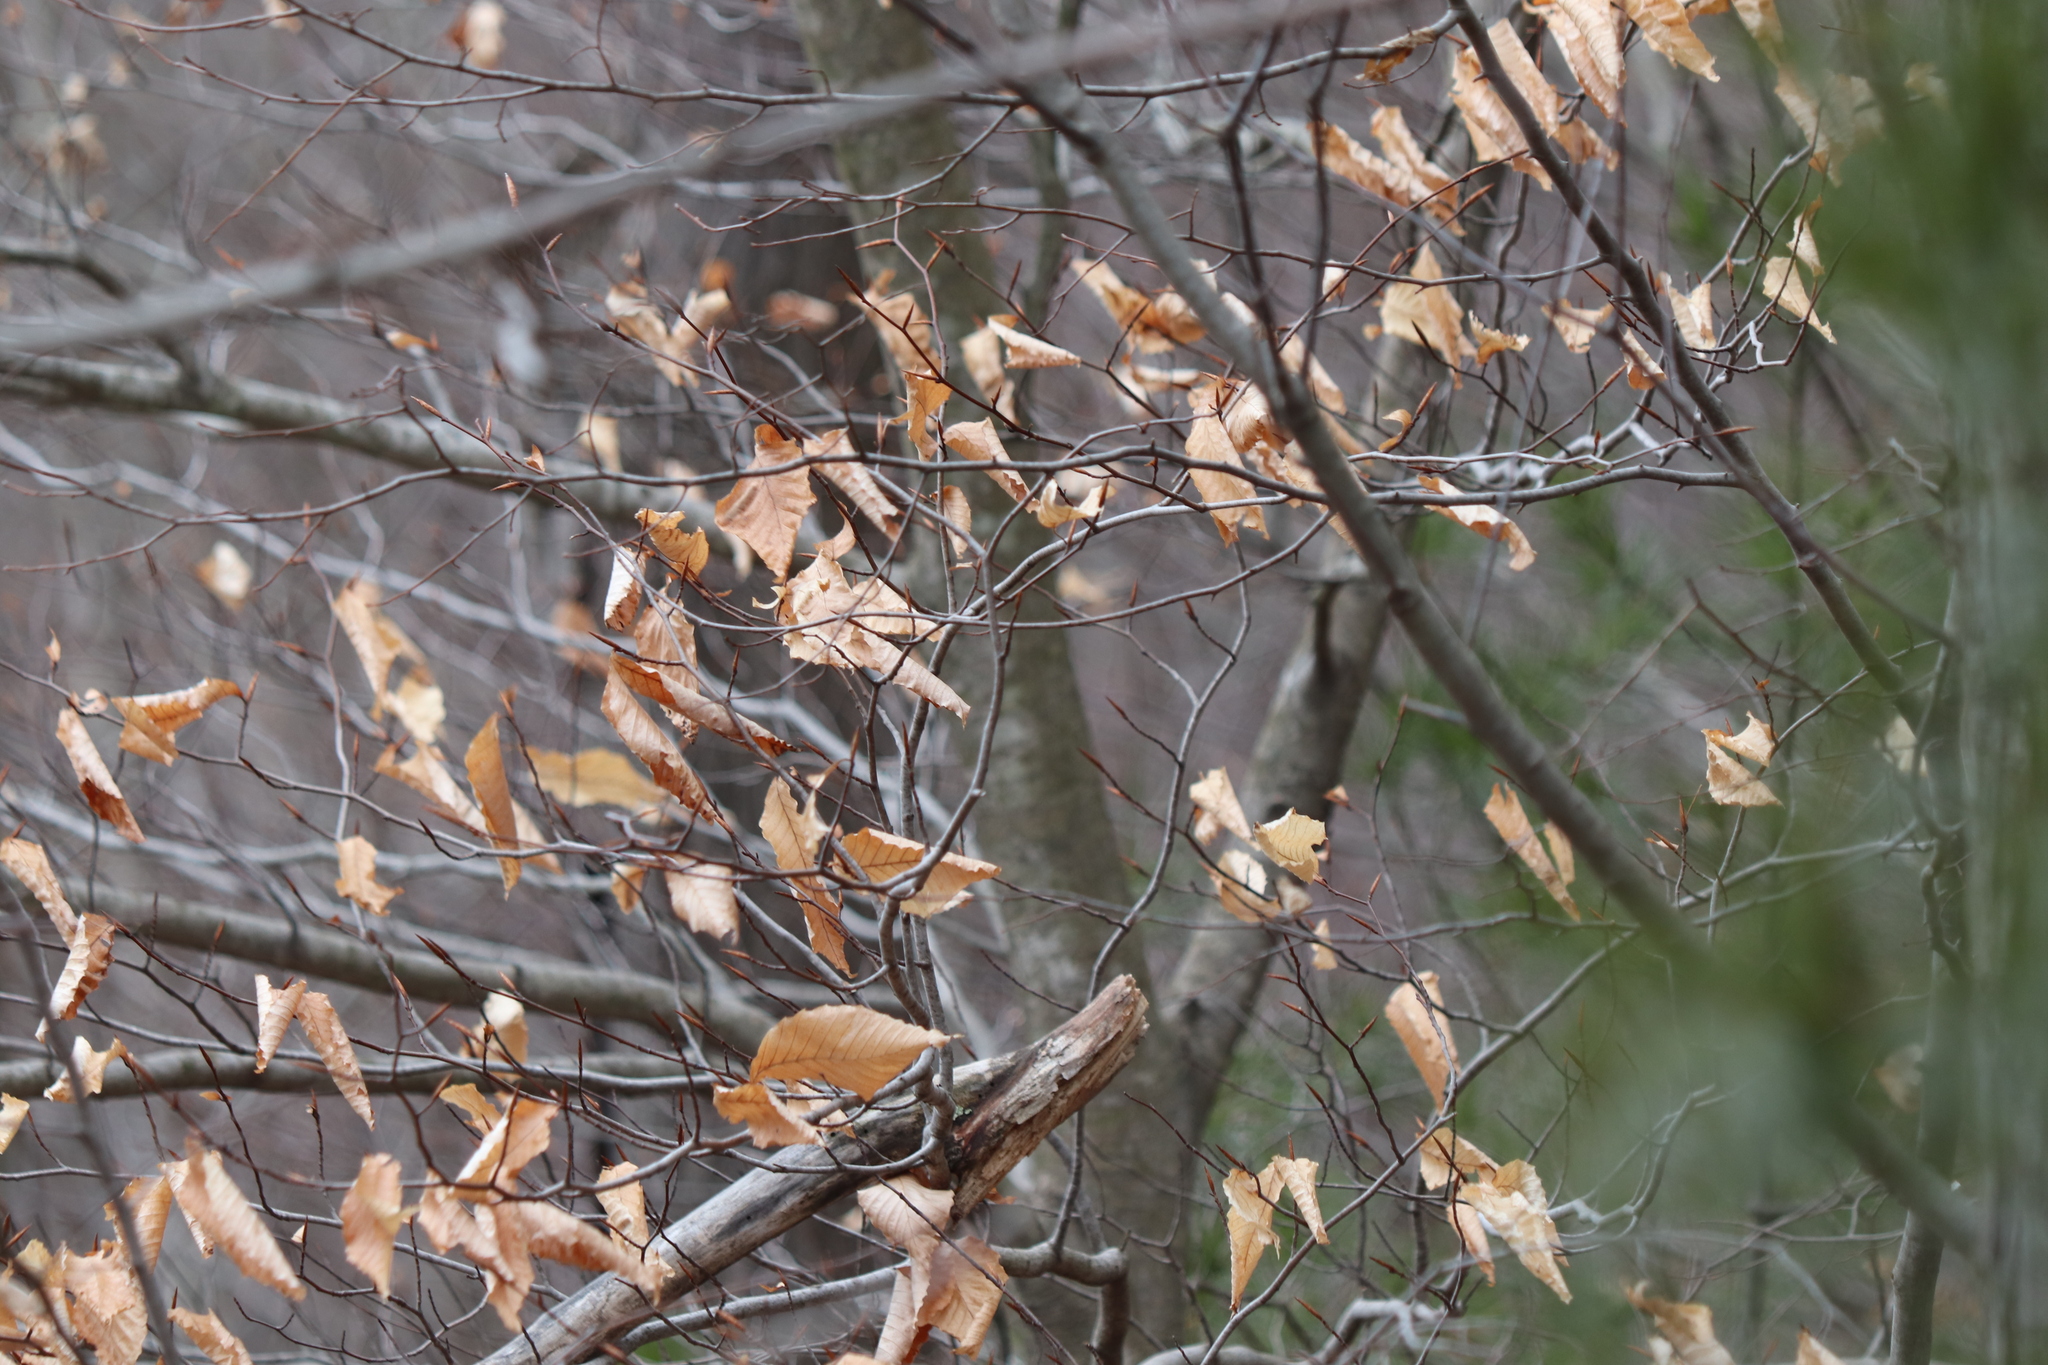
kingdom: Plantae
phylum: Tracheophyta
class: Magnoliopsida
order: Fagales
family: Fagaceae
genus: Fagus
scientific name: Fagus grandifolia
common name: American beech
